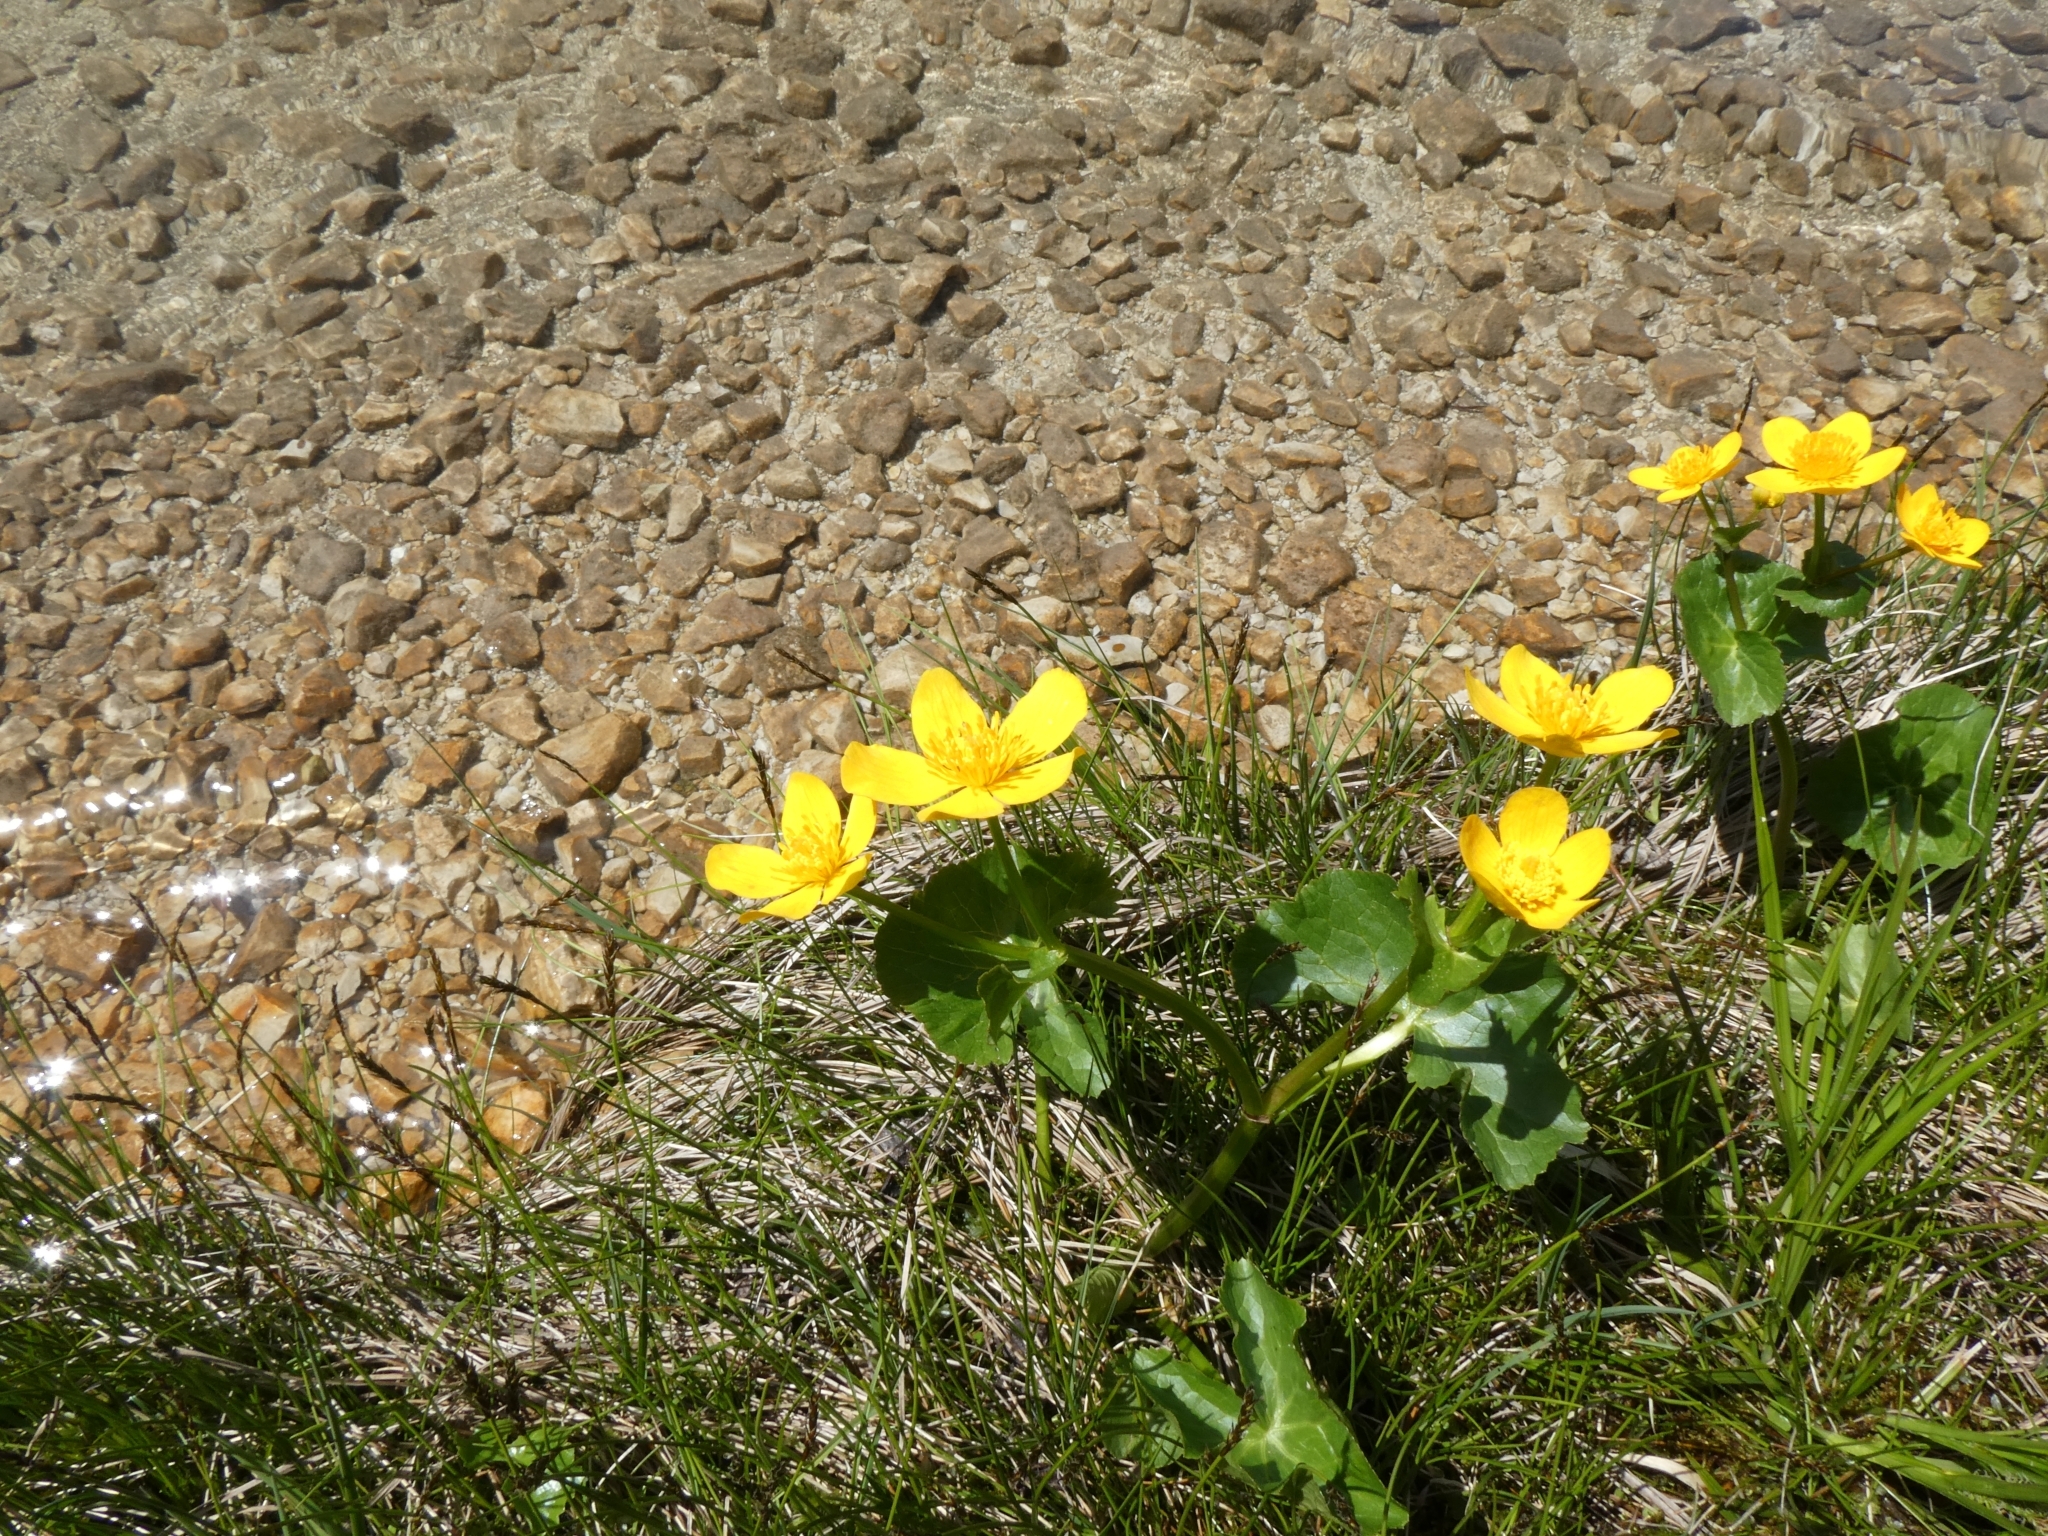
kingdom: Plantae
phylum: Tracheophyta
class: Magnoliopsida
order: Ranunculales
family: Ranunculaceae
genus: Caltha
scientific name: Caltha palustris
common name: Marsh marigold
